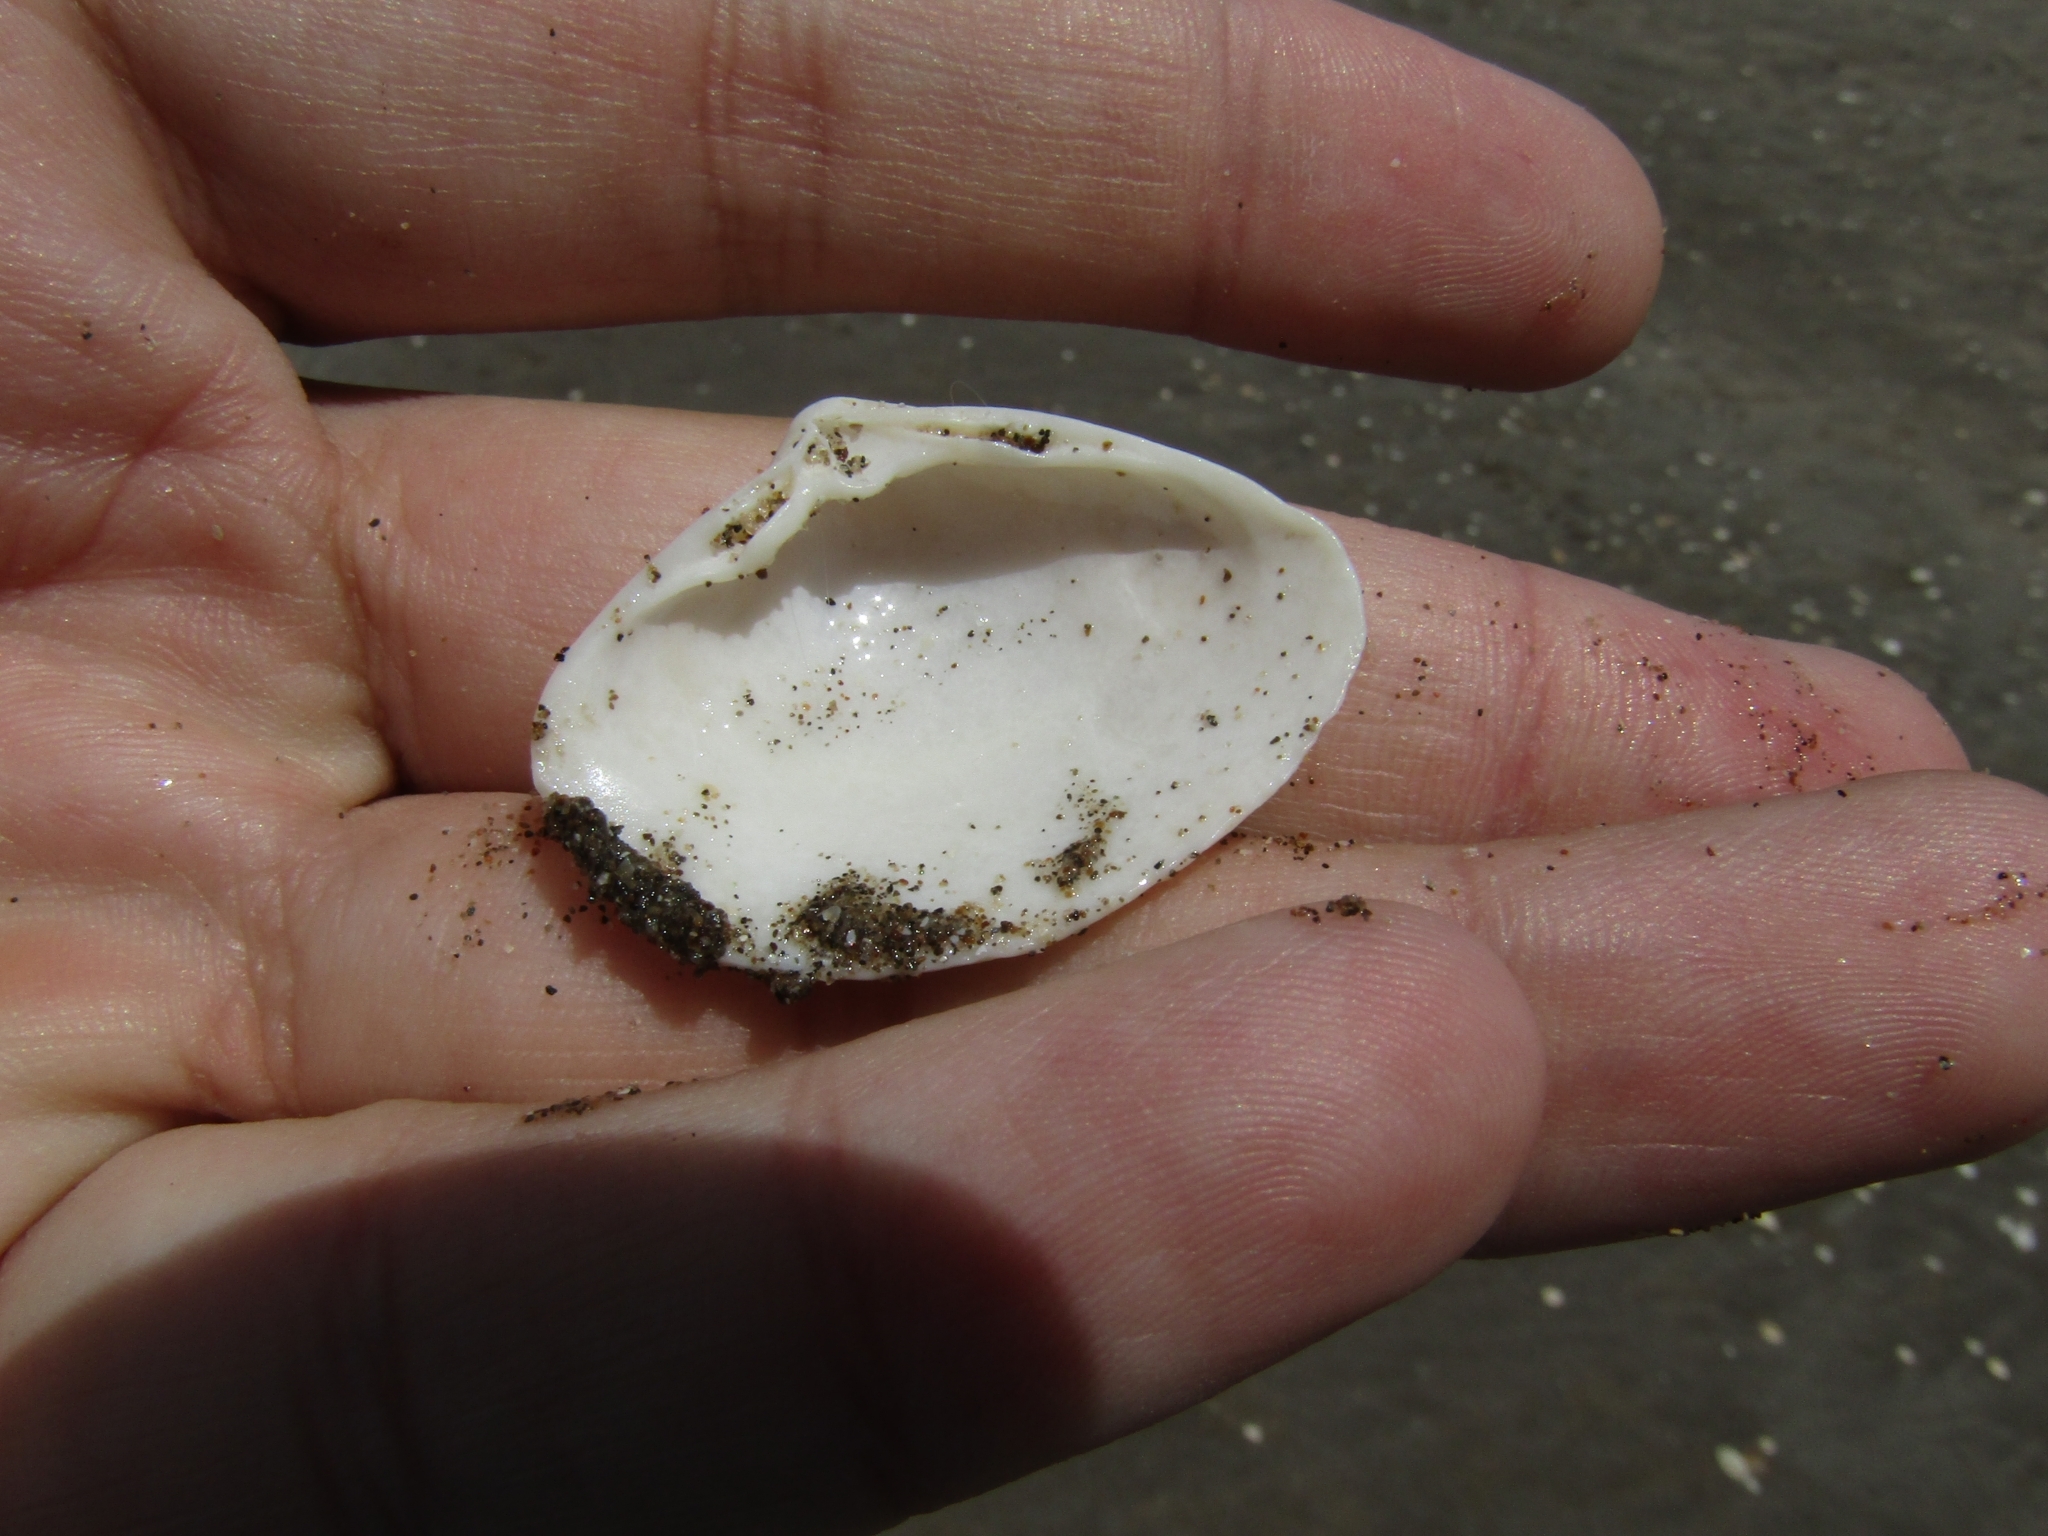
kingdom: Animalia
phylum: Mollusca
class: Bivalvia
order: Venerida
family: Veneridae
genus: Tivela
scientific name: Tivela dentaria
